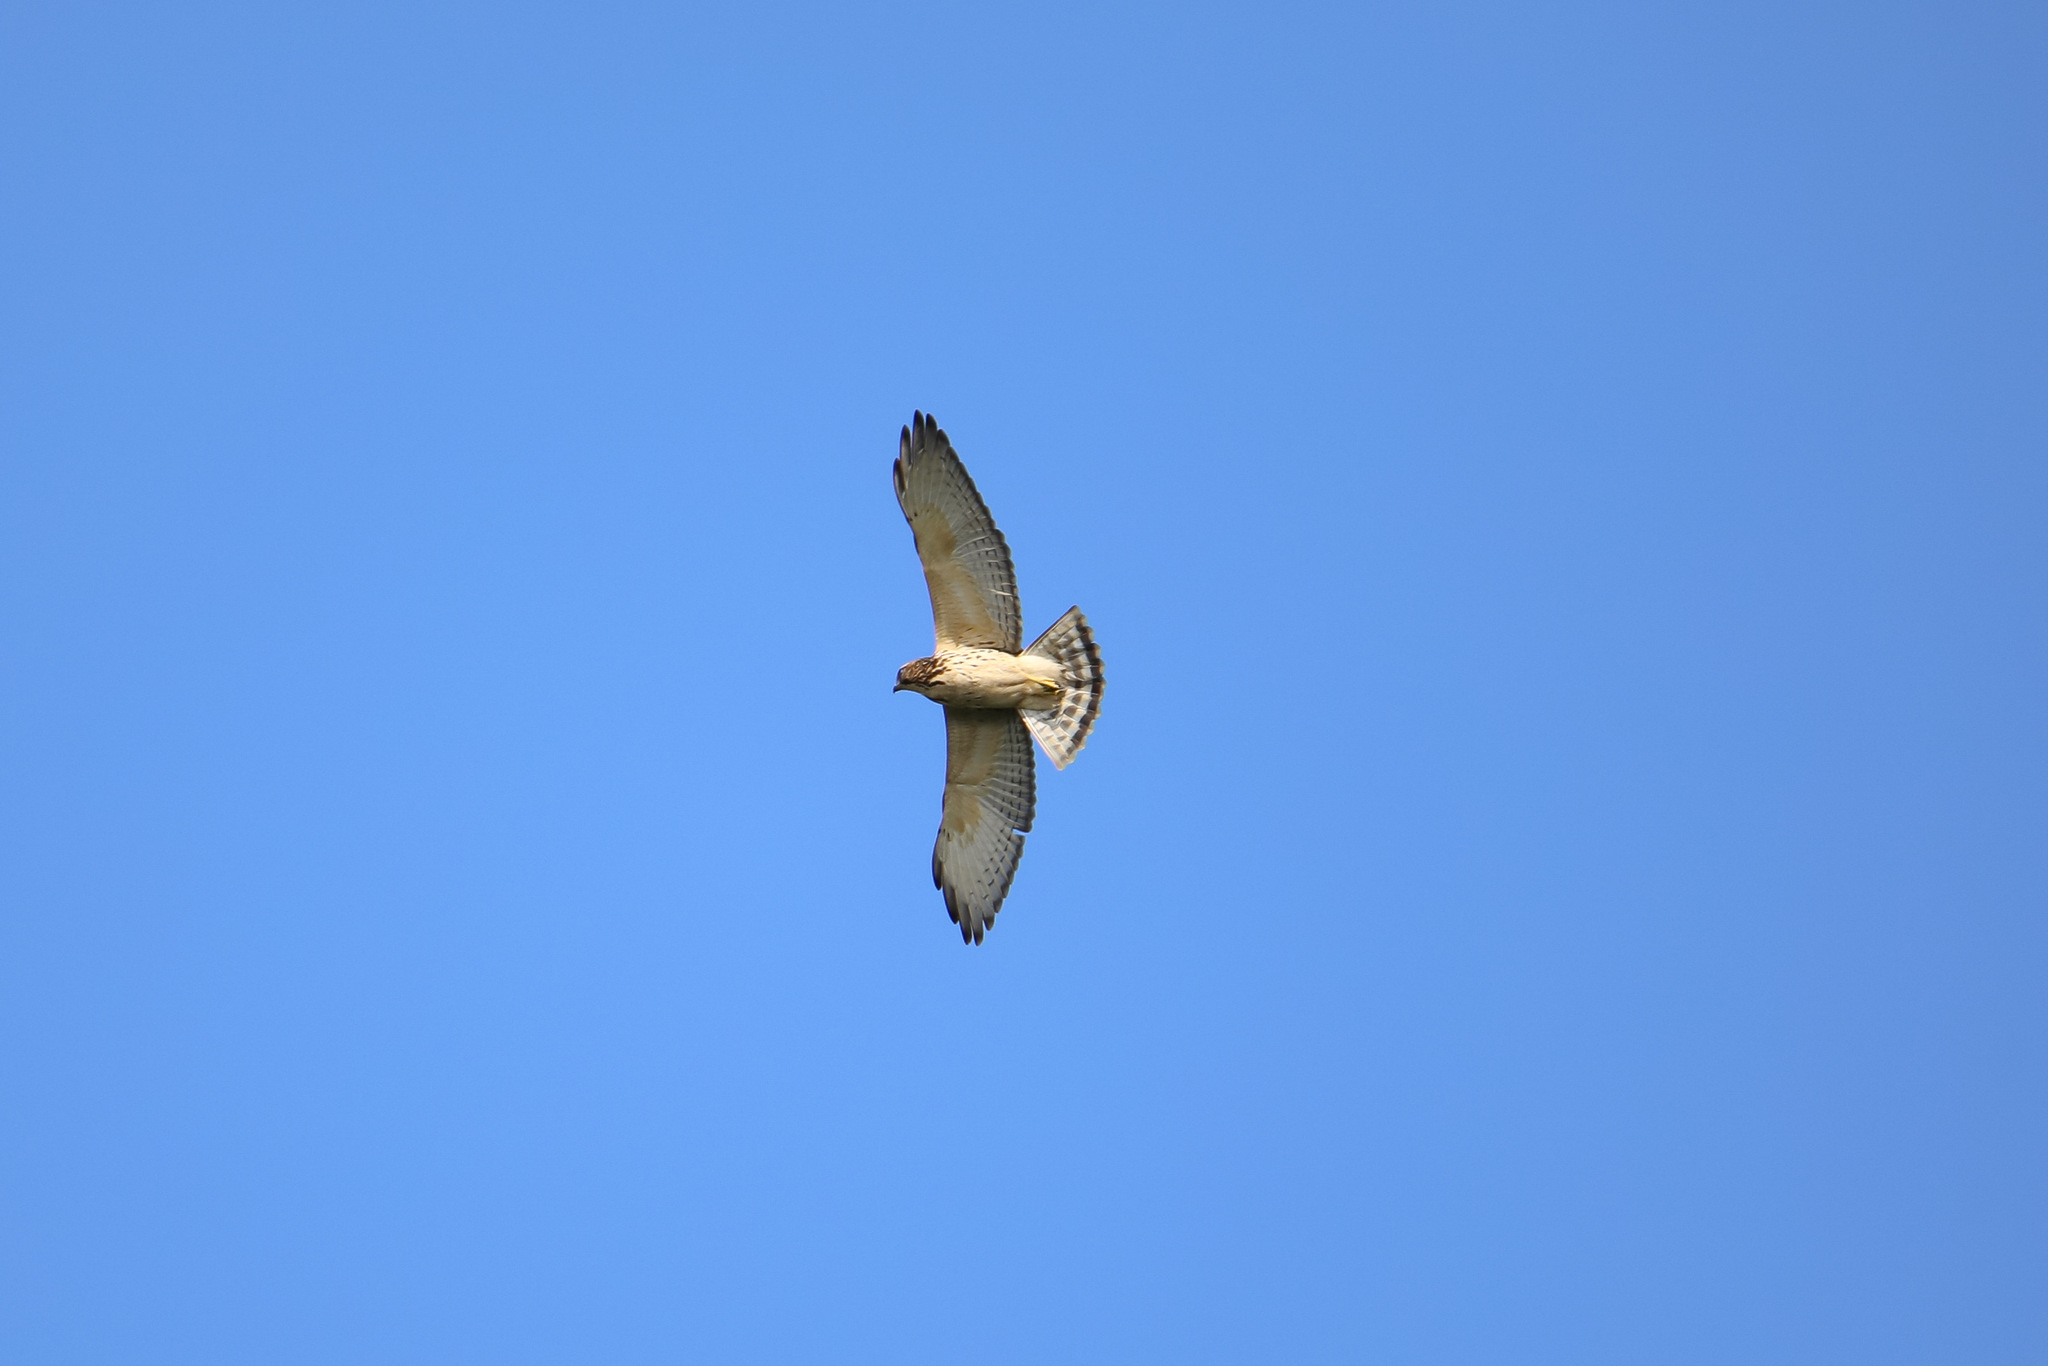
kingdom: Animalia
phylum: Chordata
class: Aves
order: Accipitriformes
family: Accipitridae
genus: Buteo
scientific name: Buteo platypterus
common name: Broad-winged hawk
